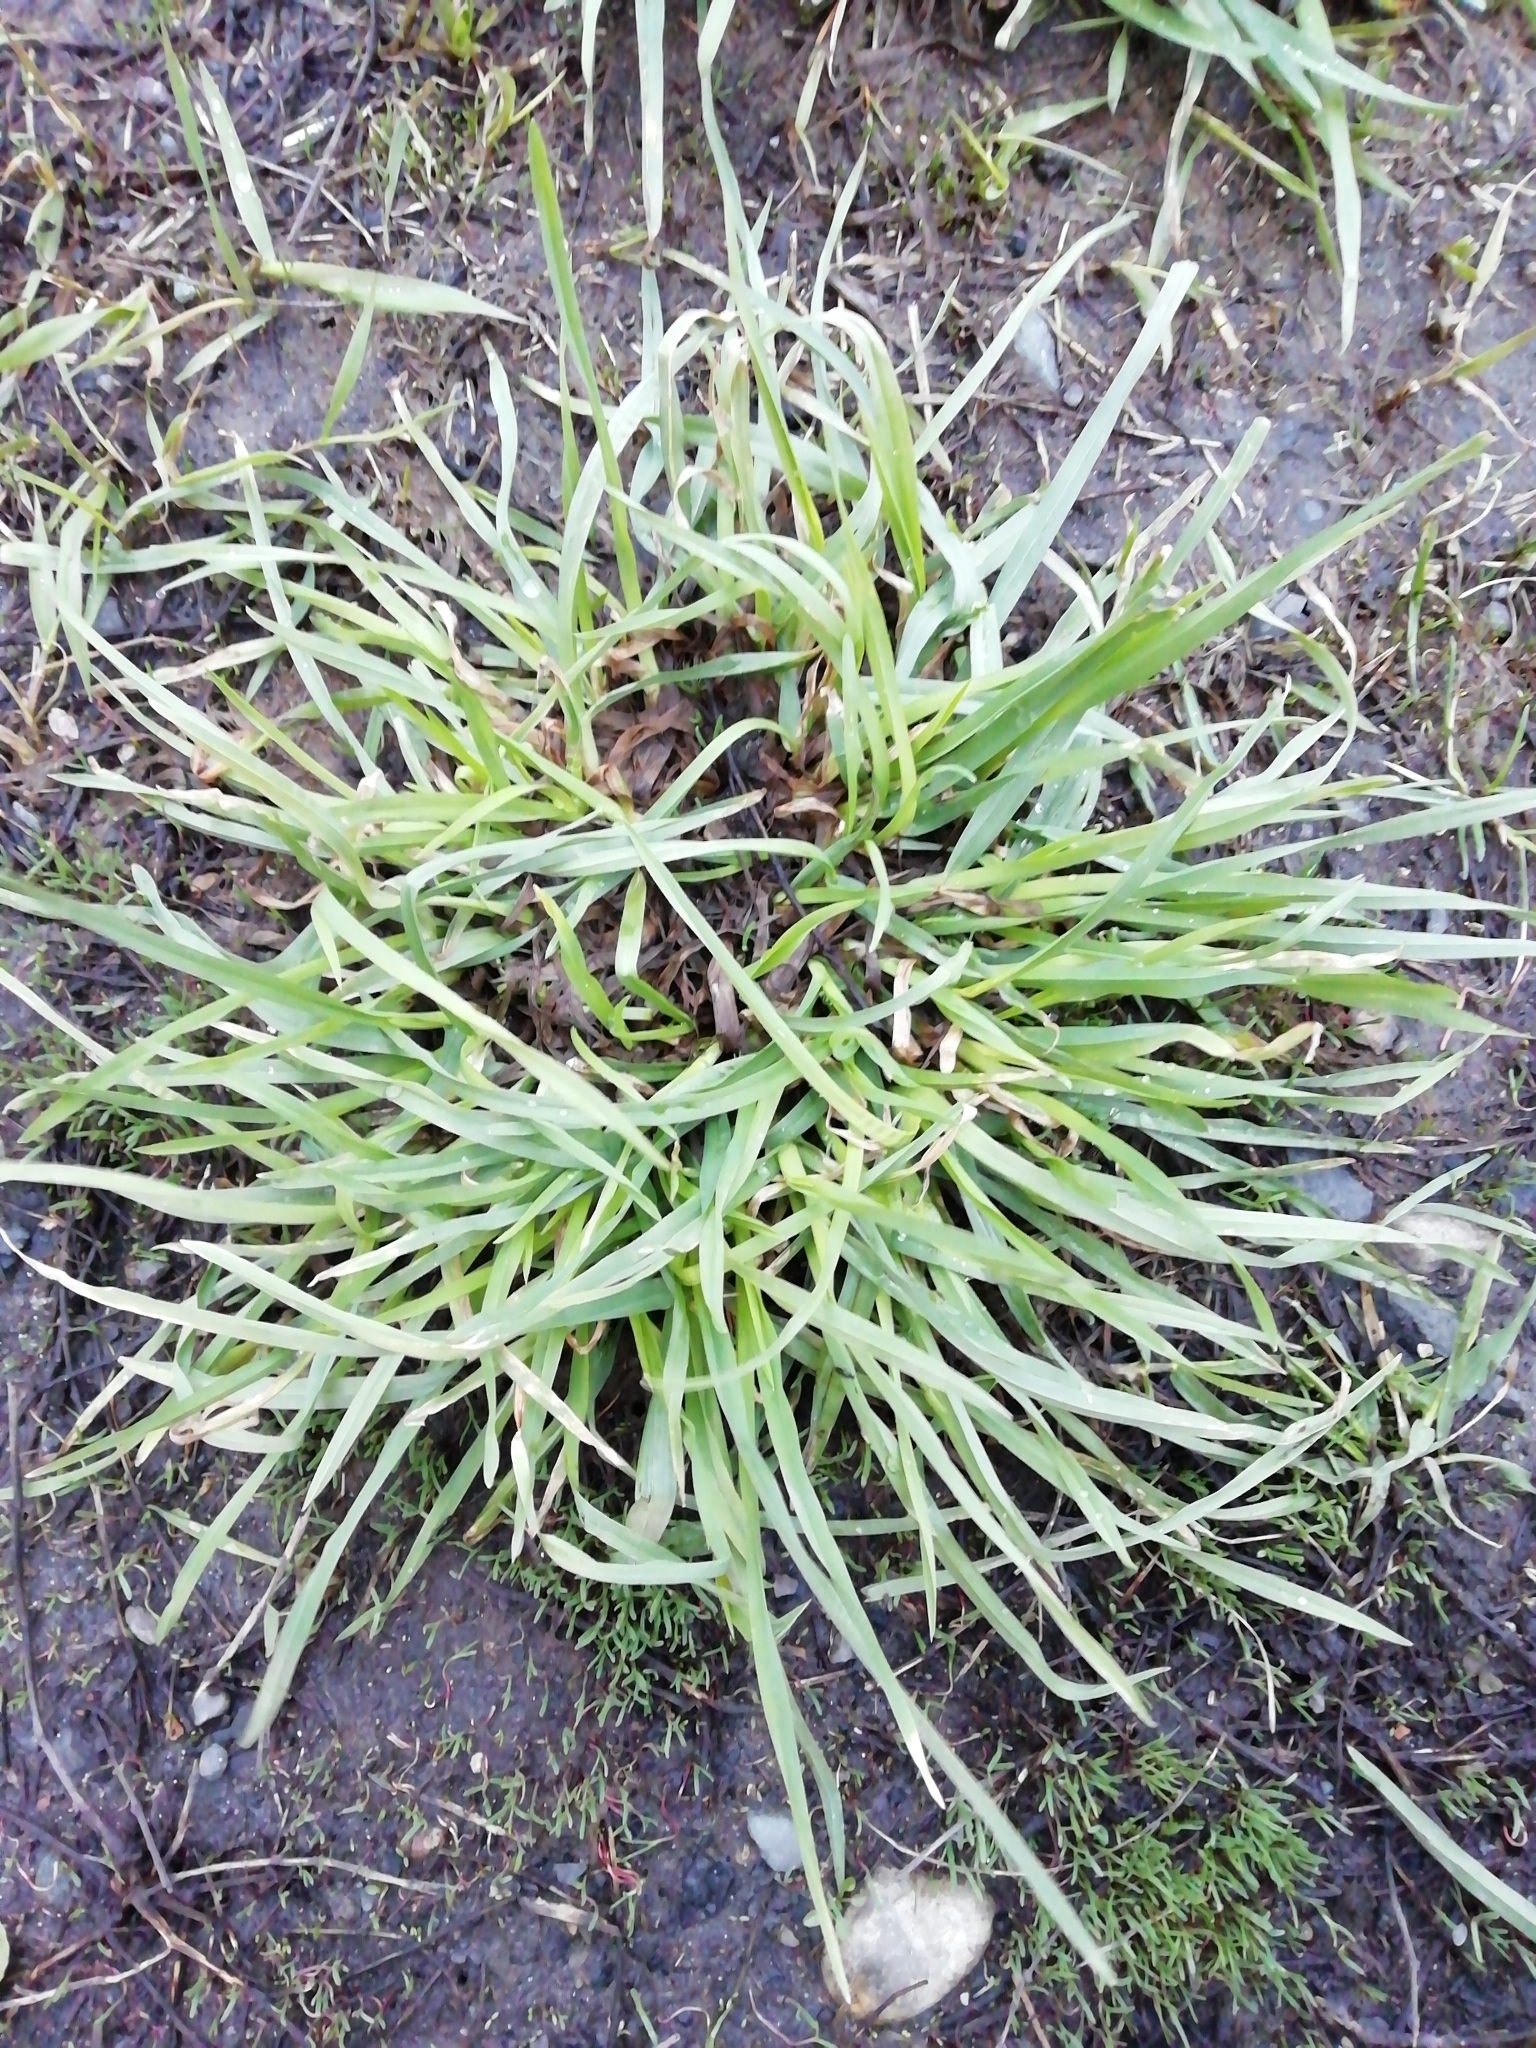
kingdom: Plantae
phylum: Tracheophyta
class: Liliopsida
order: Poales
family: Poaceae
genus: Dactylis
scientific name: Dactylis glomerata
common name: Orchardgrass
